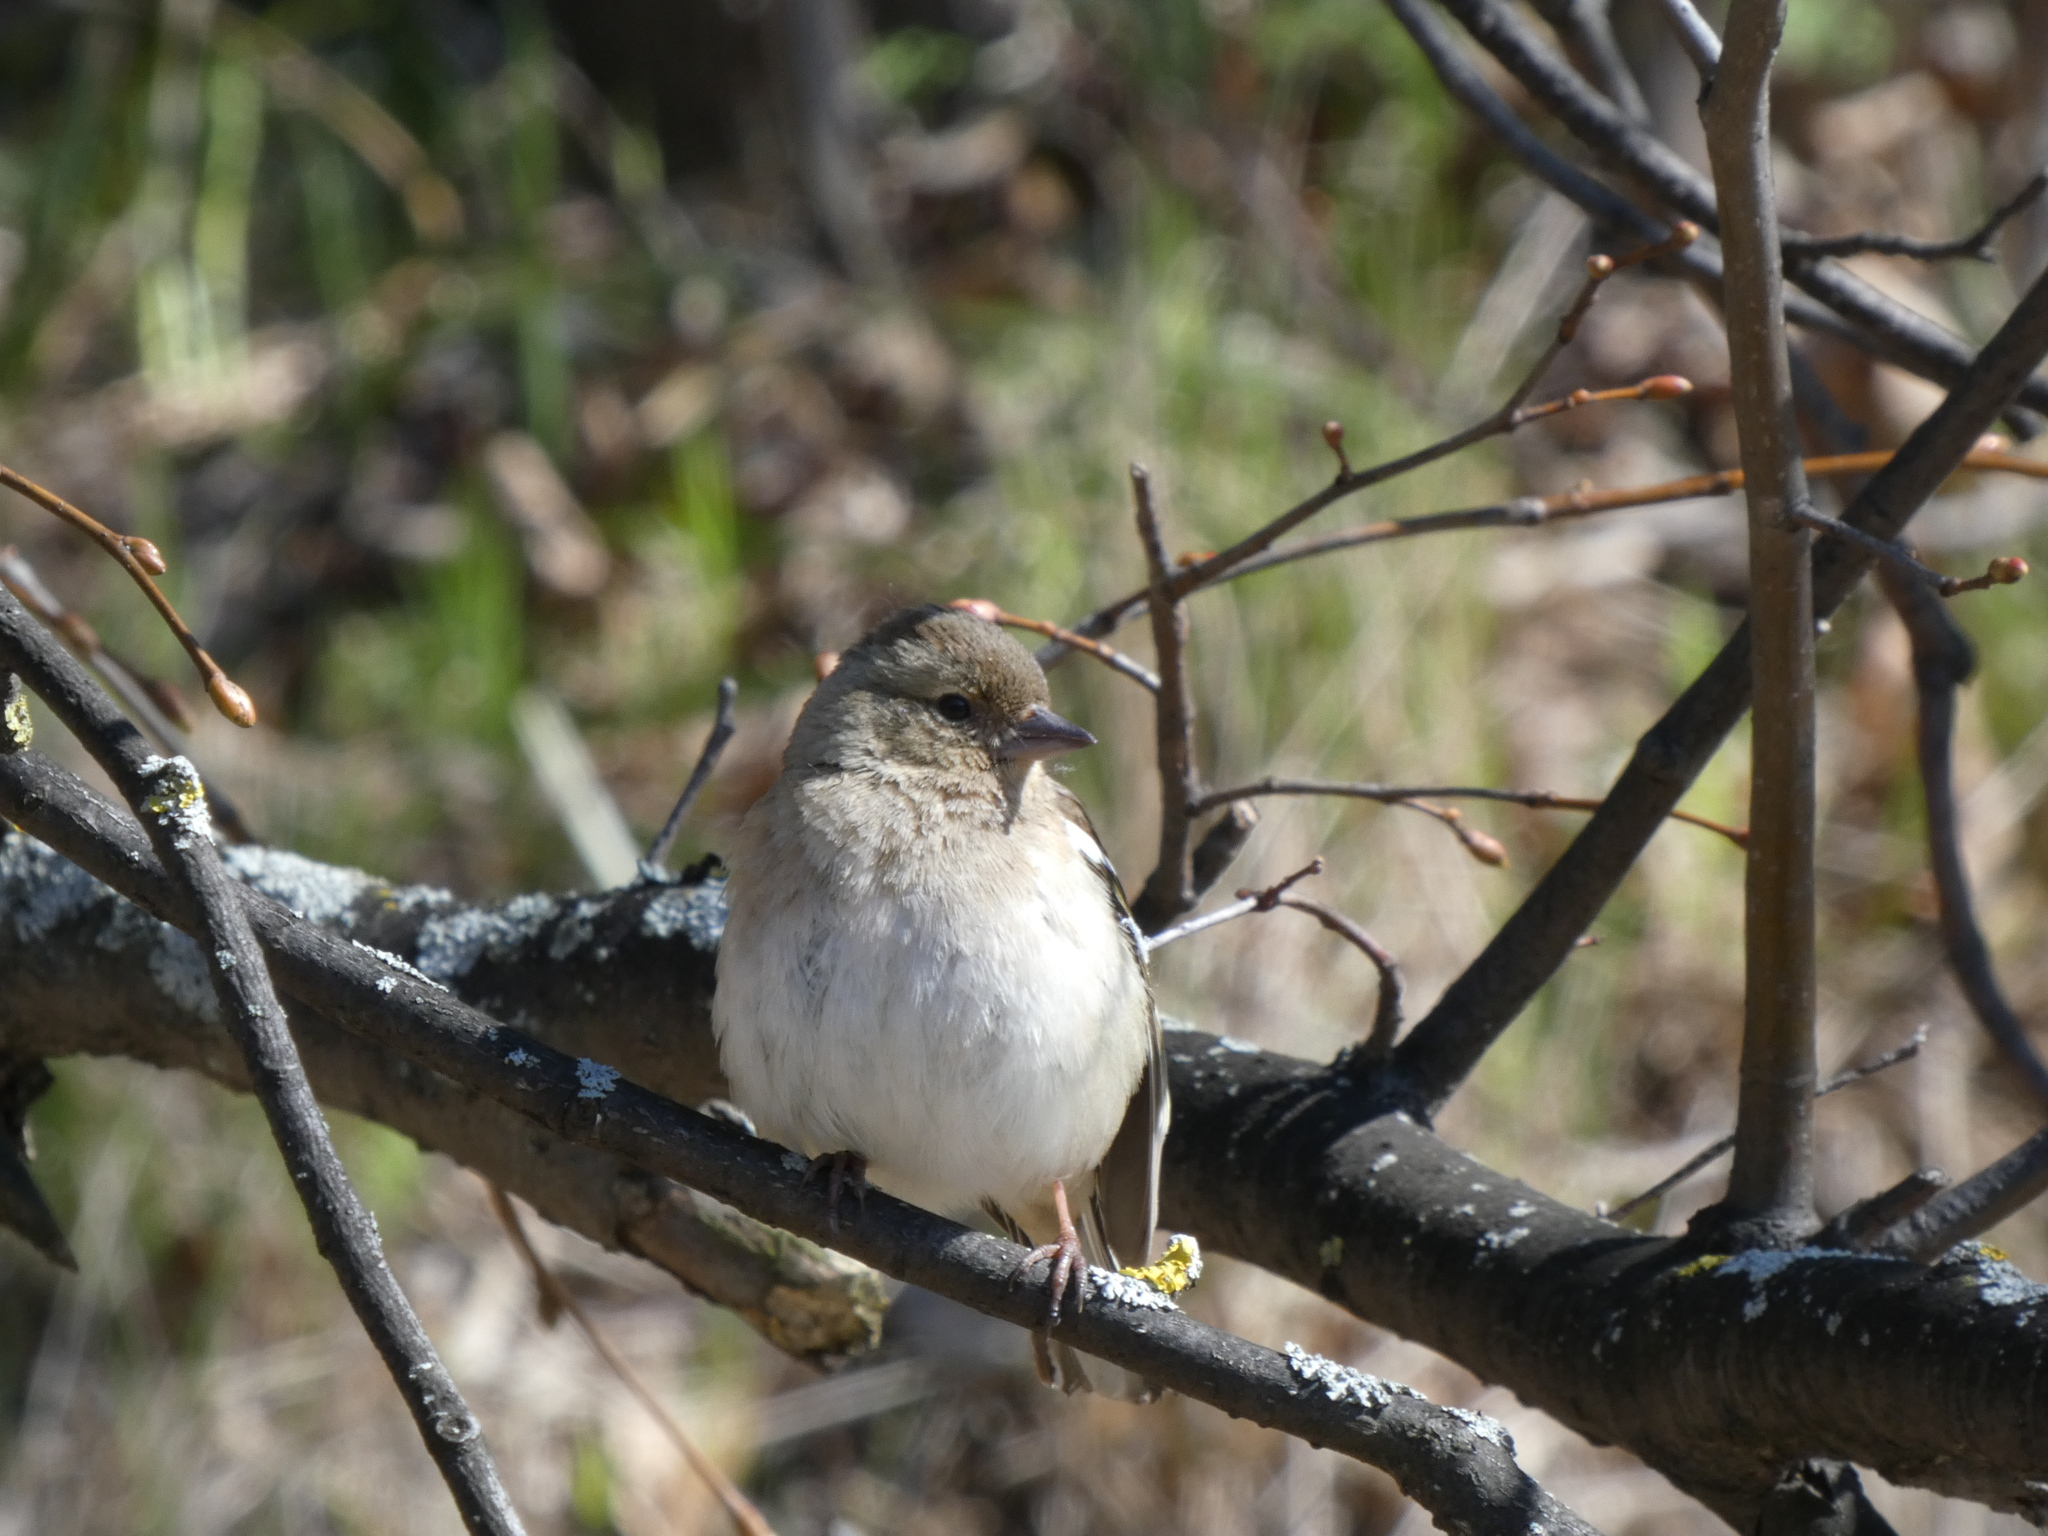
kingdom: Animalia
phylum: Chordata
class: Aves
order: Passeriformes
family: Fringillidae
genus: Fringilla
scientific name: Fringilla coelebs
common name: Common chaffinch
